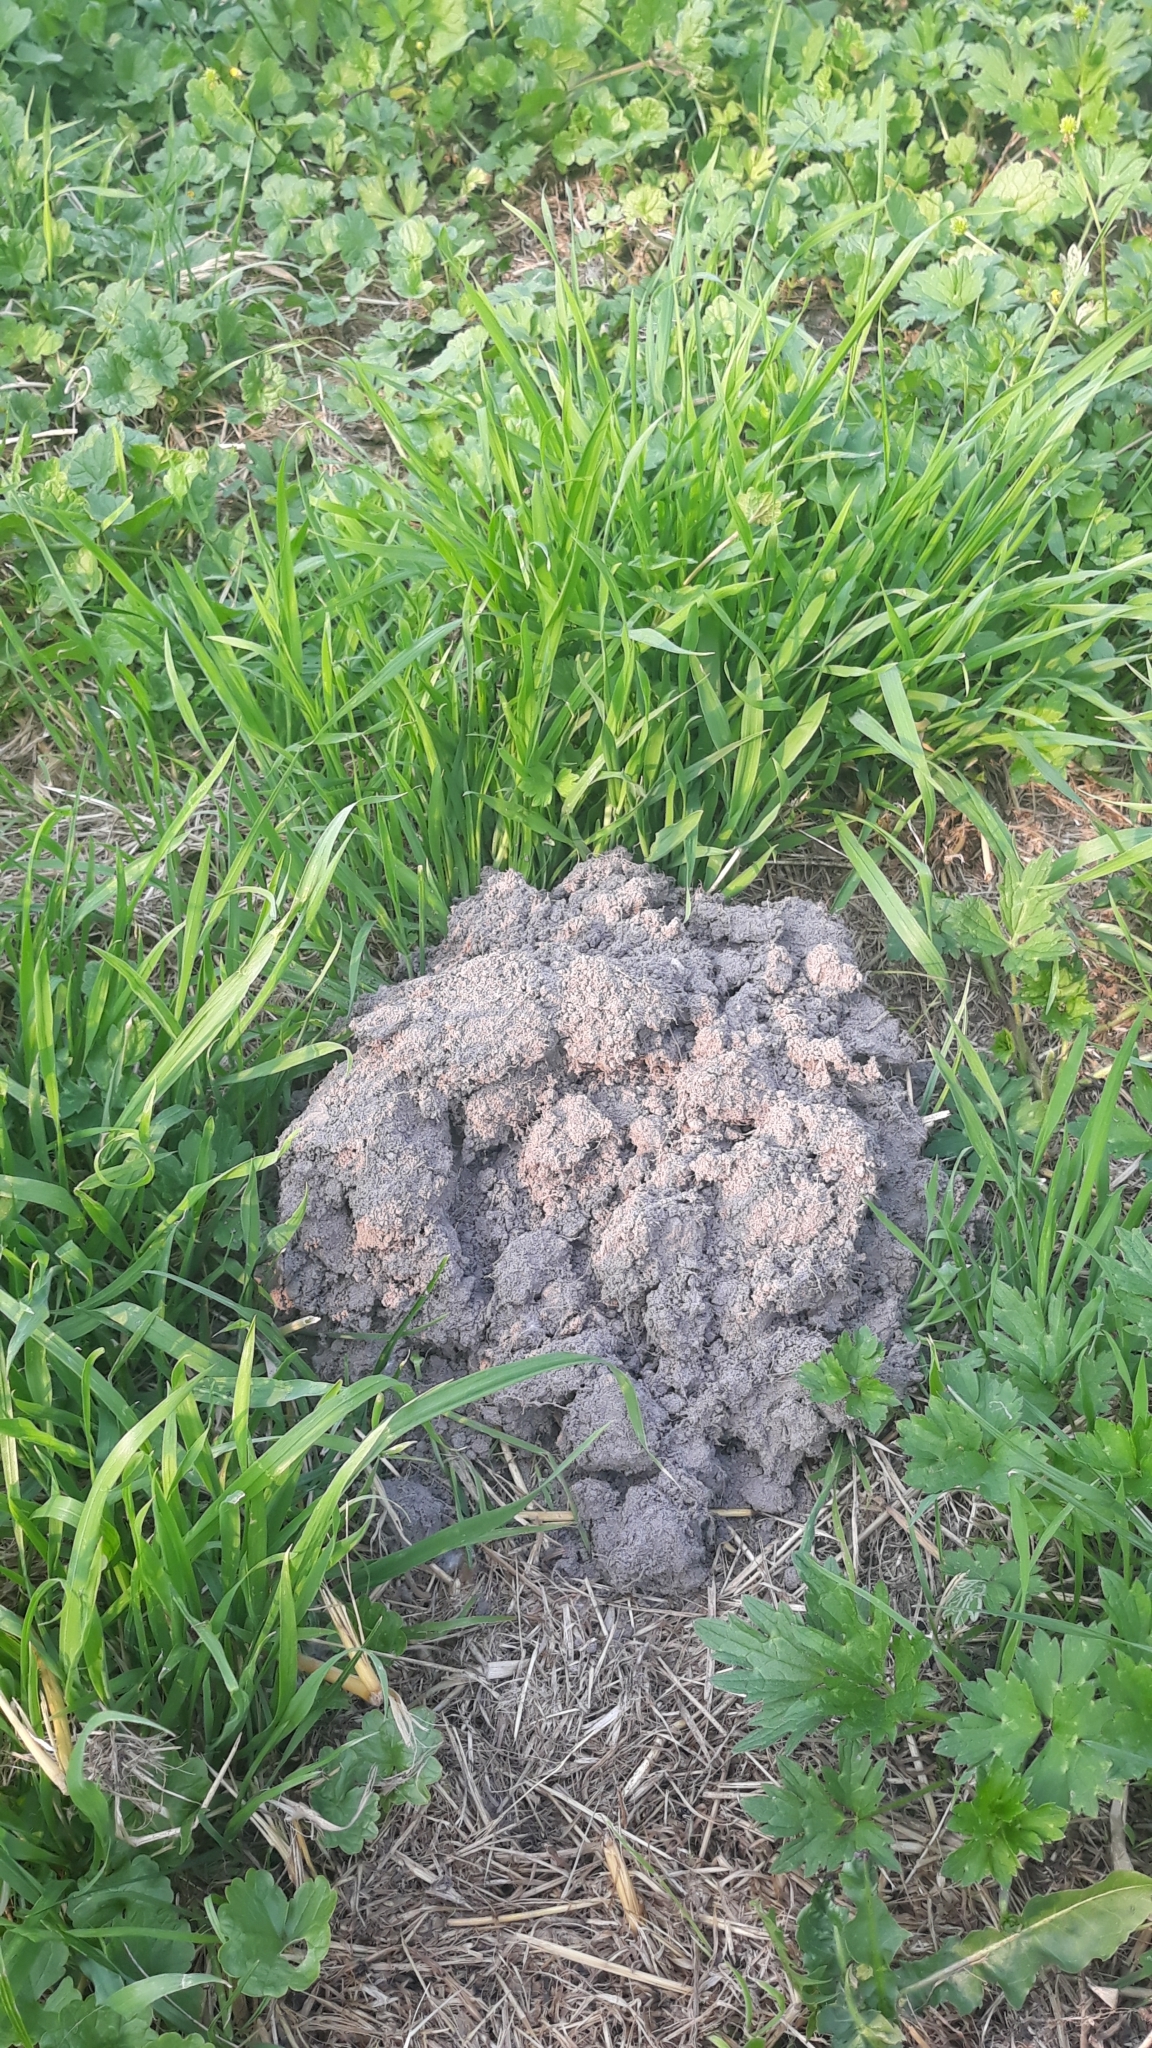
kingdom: Animalia
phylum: Chordata
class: Mammalia
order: Soricomorpha
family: Talpidae
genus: Talpa
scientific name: Talpa europaea
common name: European mole
